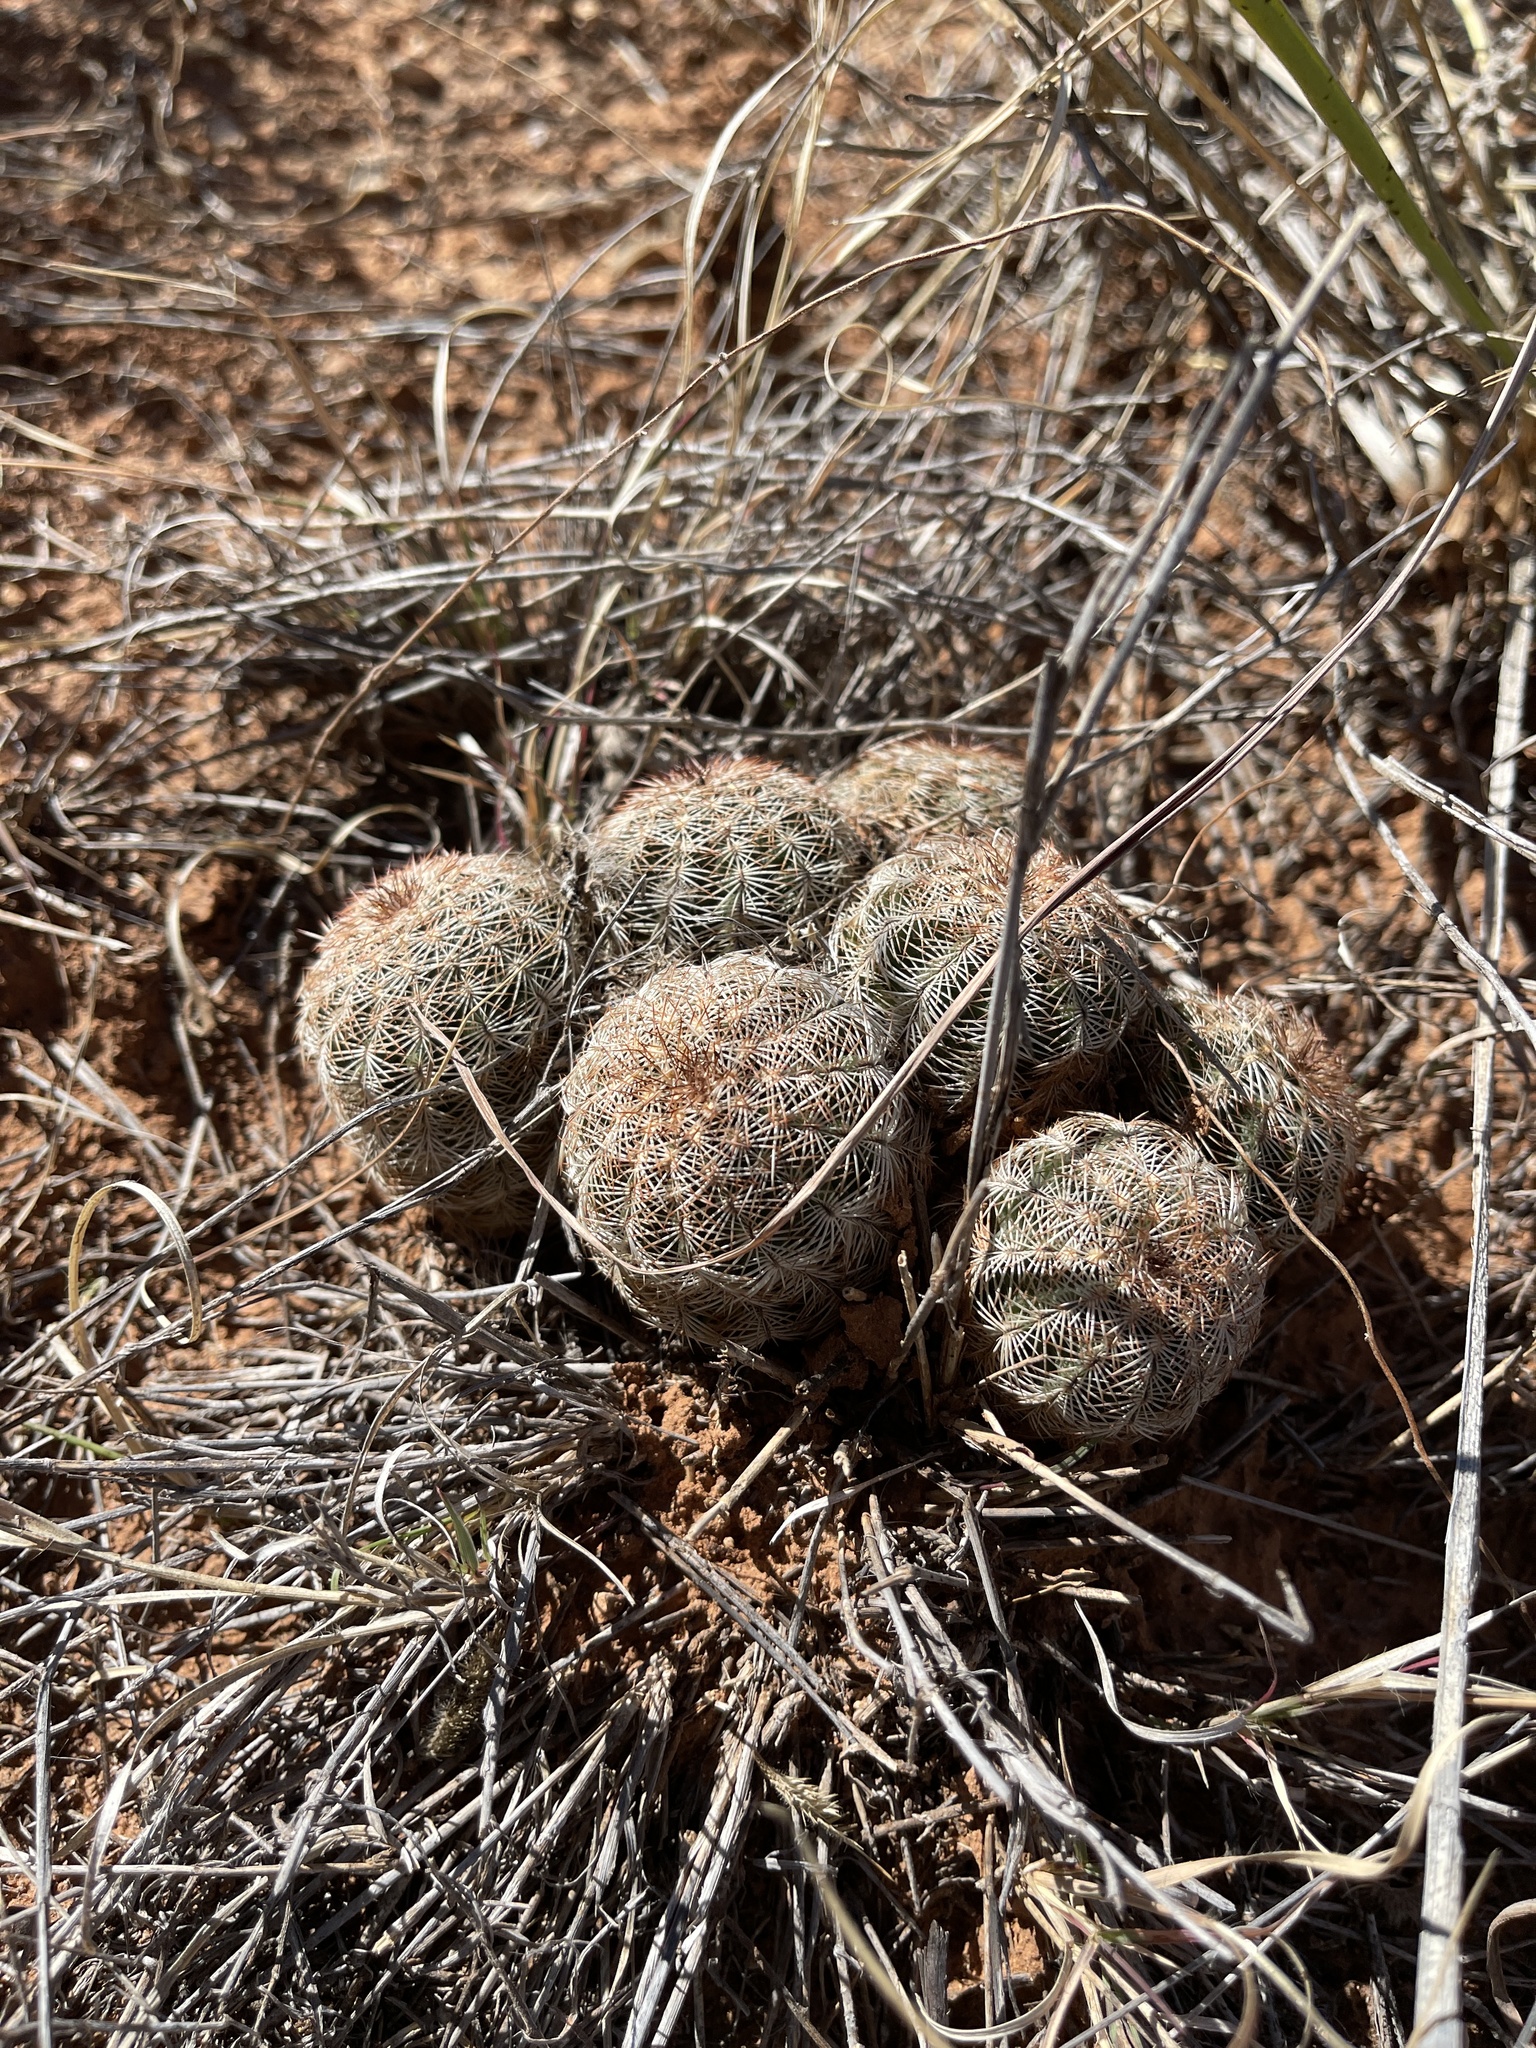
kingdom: Plantae
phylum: Tracheophyta
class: Magnoliopsida
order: Caryophyllales
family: Cactaceae
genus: Echinocereus
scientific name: Echinocereus reichenbachii
